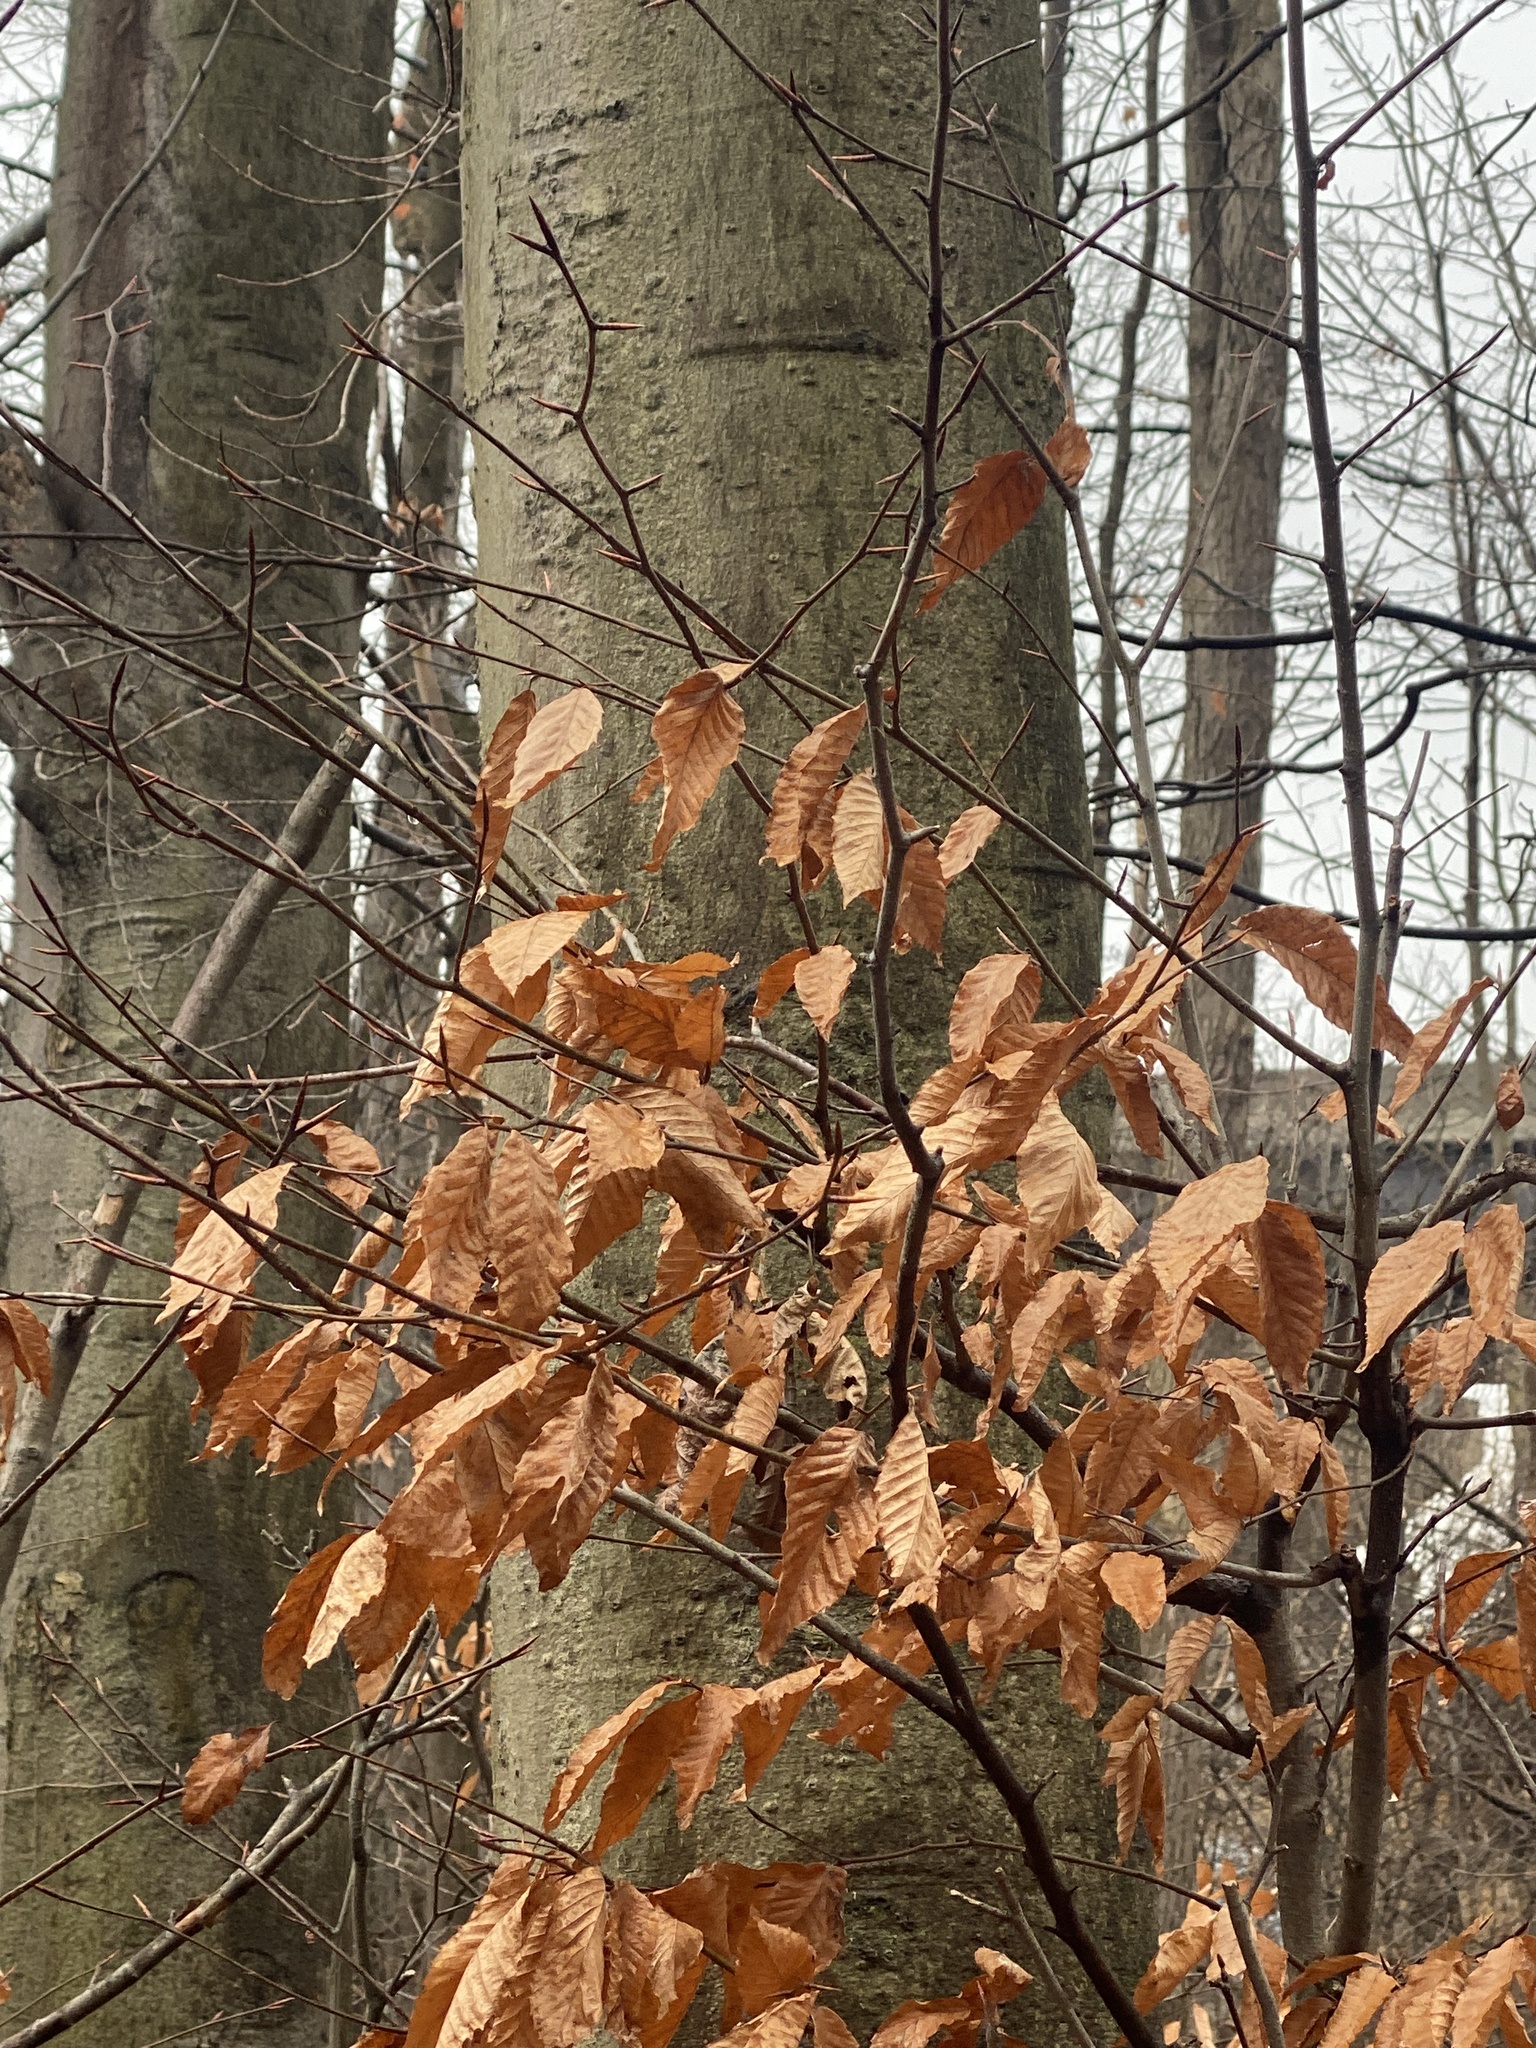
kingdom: Plantae
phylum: Tracheophyta
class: Magnoliopsida
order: Fagales
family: Fagaceae
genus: Fagus
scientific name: Fagus grandifolia
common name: American beech
